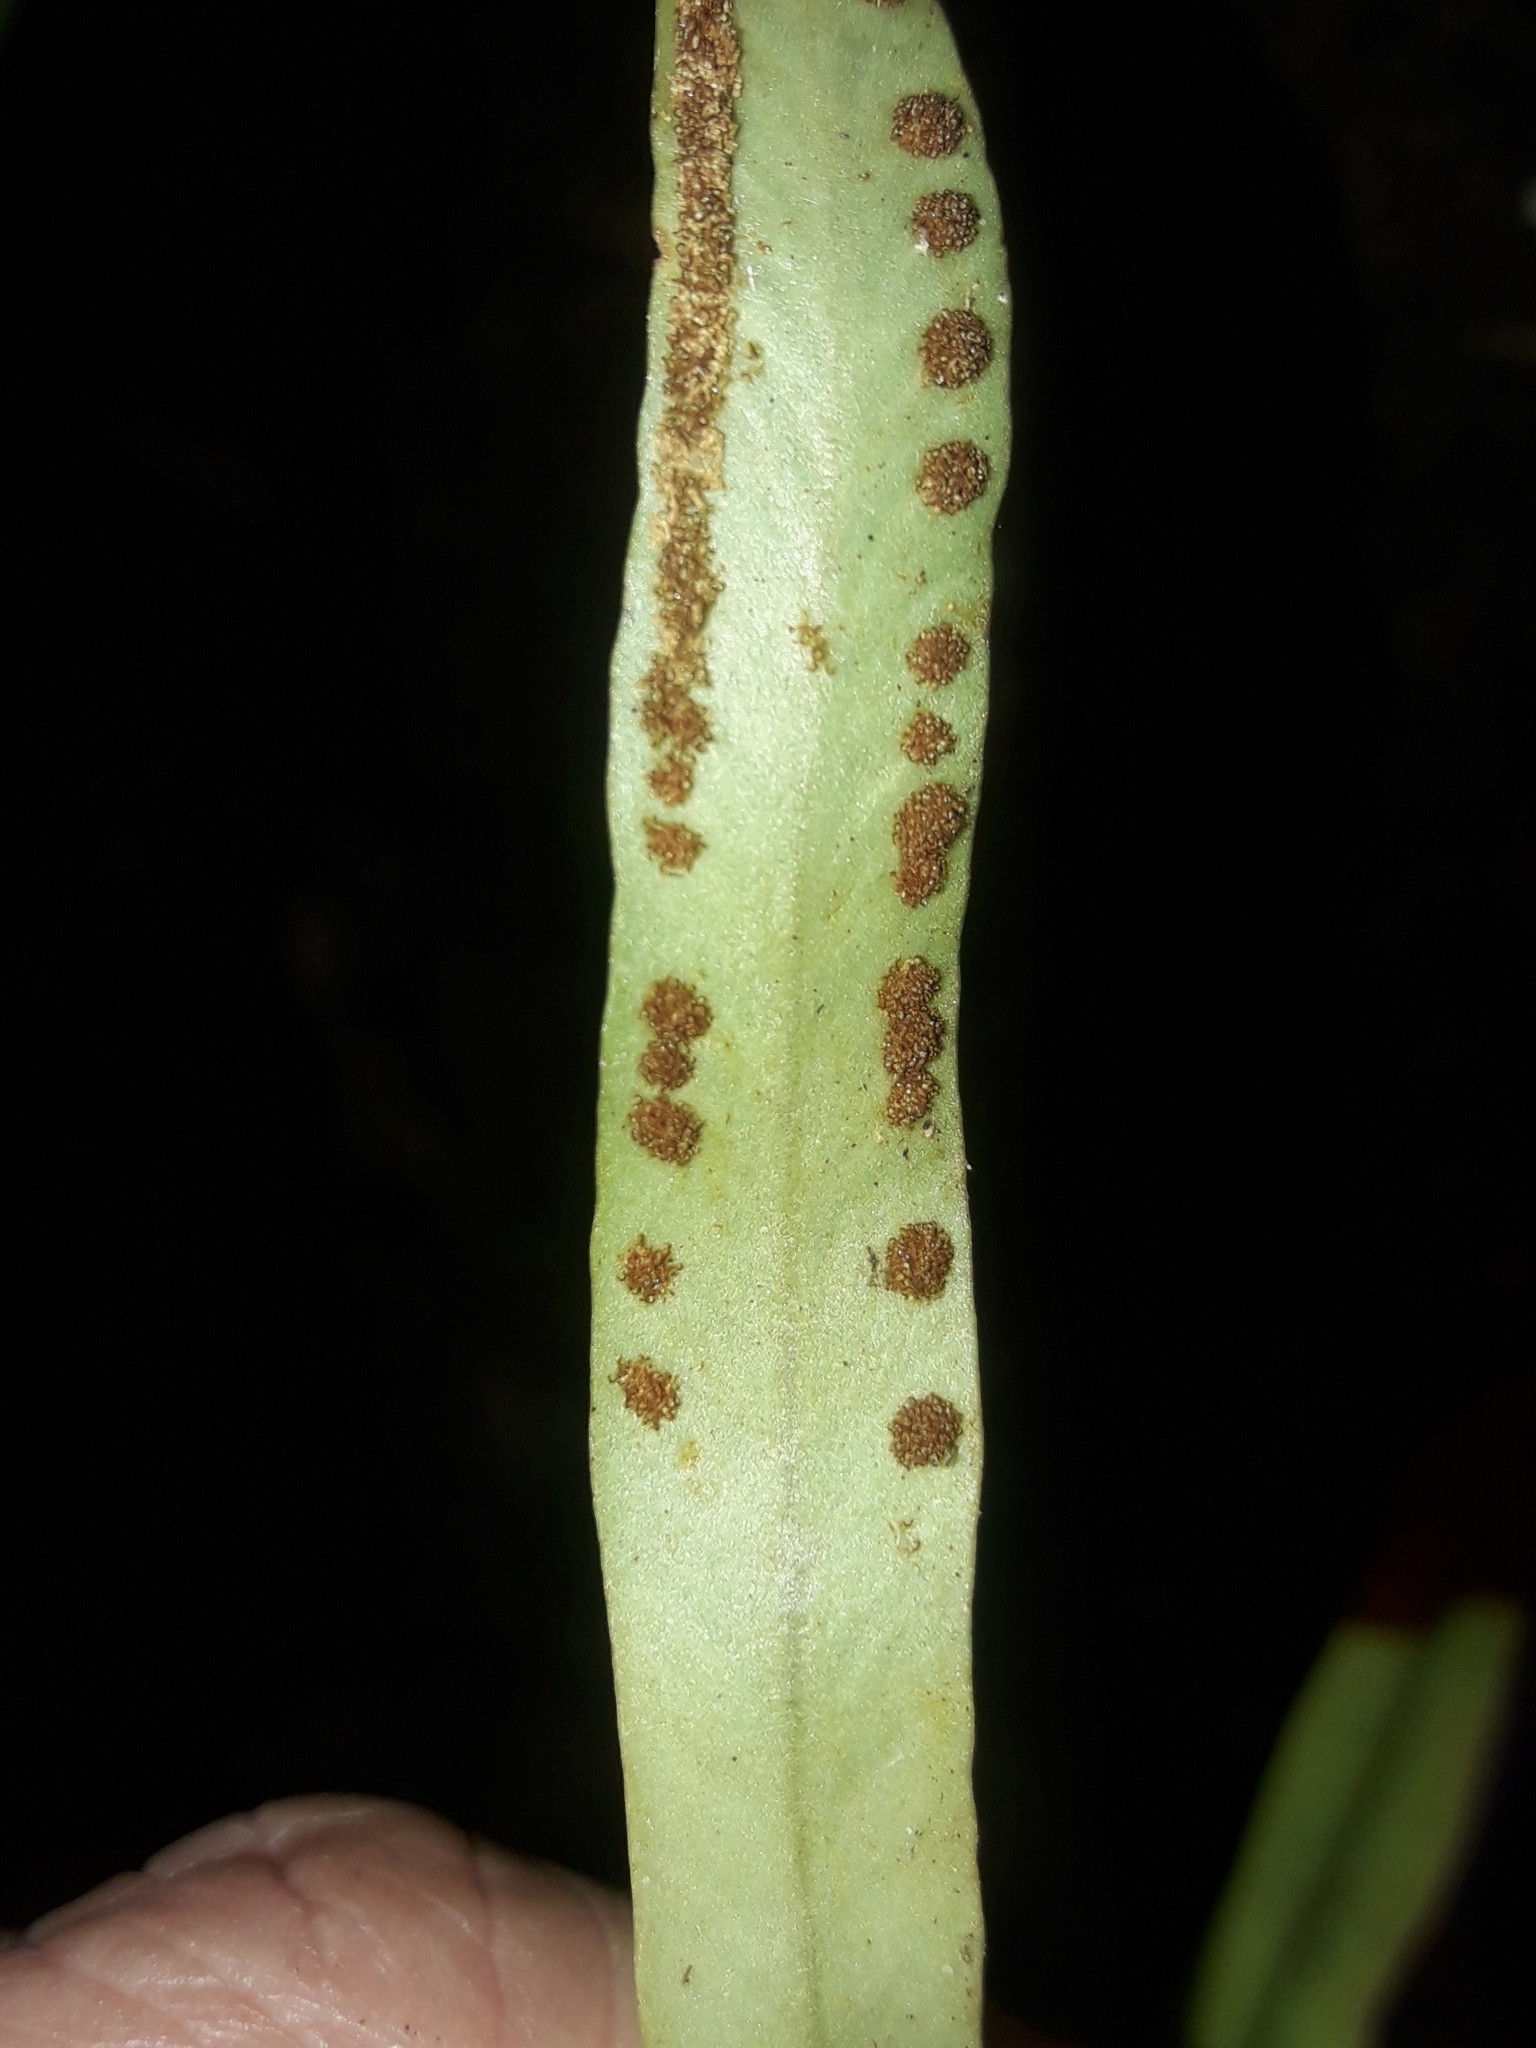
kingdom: Plantae
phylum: Tracheophyta
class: Polypodiopsida
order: Polypodiales
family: Polypodiaceae
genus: Grammitis
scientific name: Grammitis deplanchei
